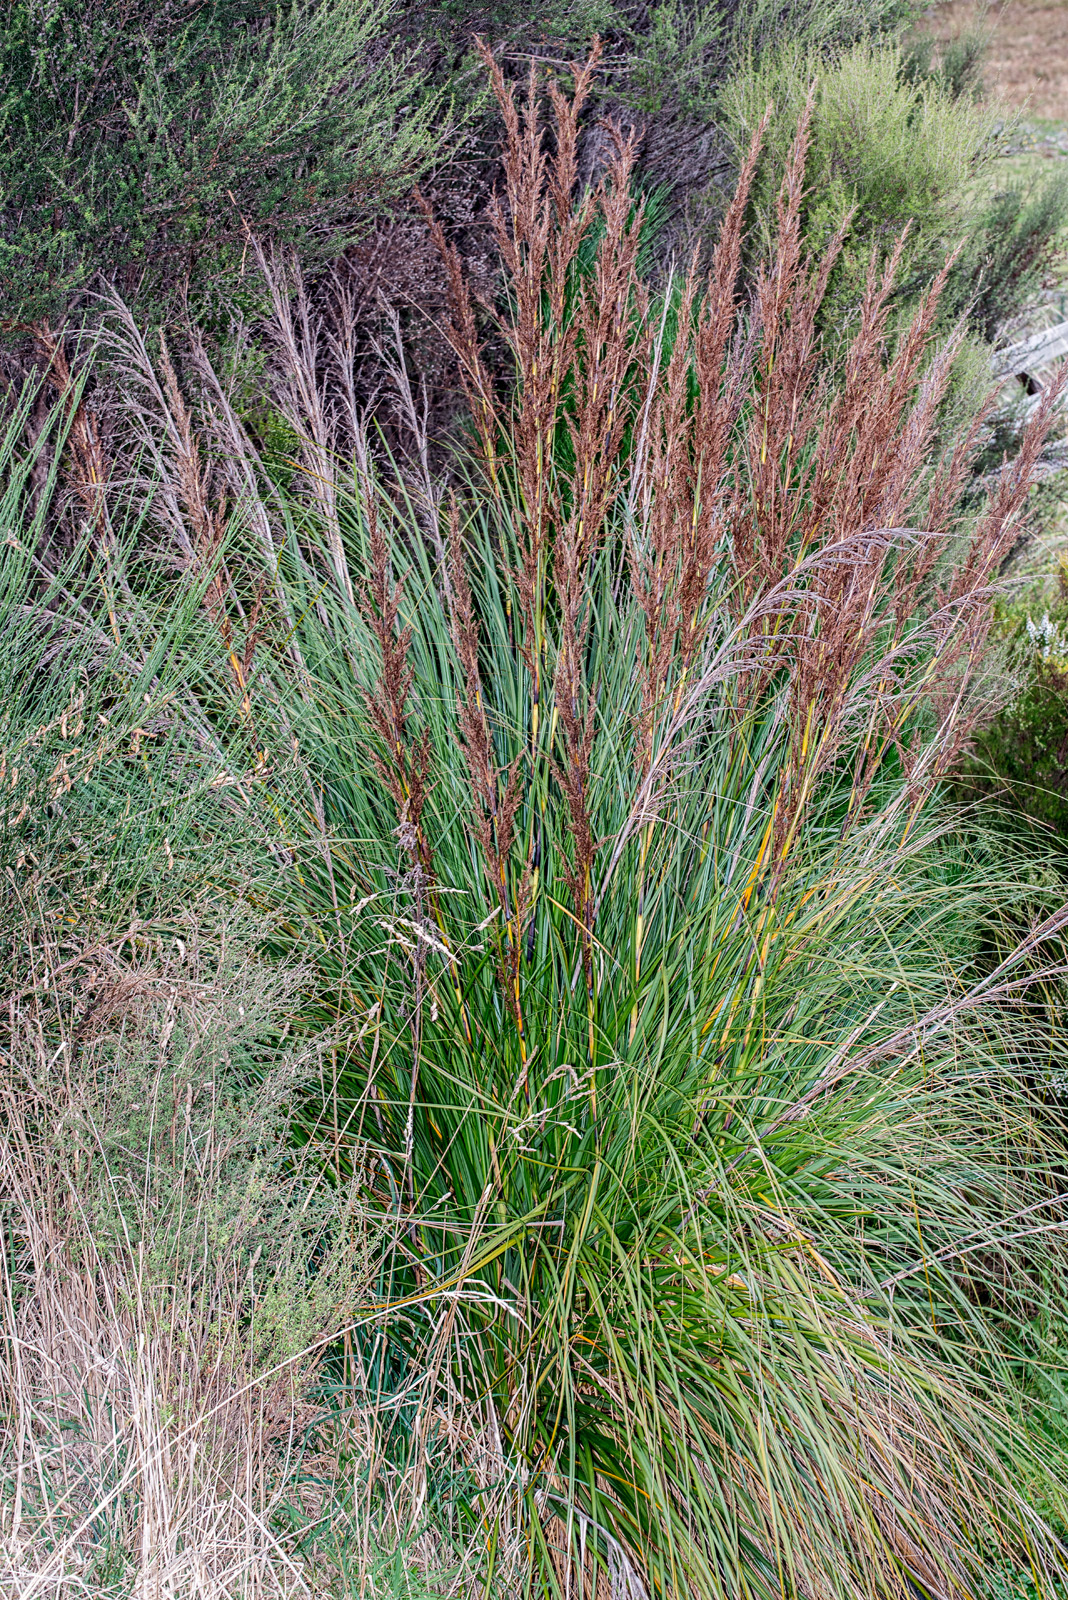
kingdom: Plantae
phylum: Tracheophyta
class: Liliopsida
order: Poales
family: Cyperaceae
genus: Gahnia
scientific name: Gahnia rigida
